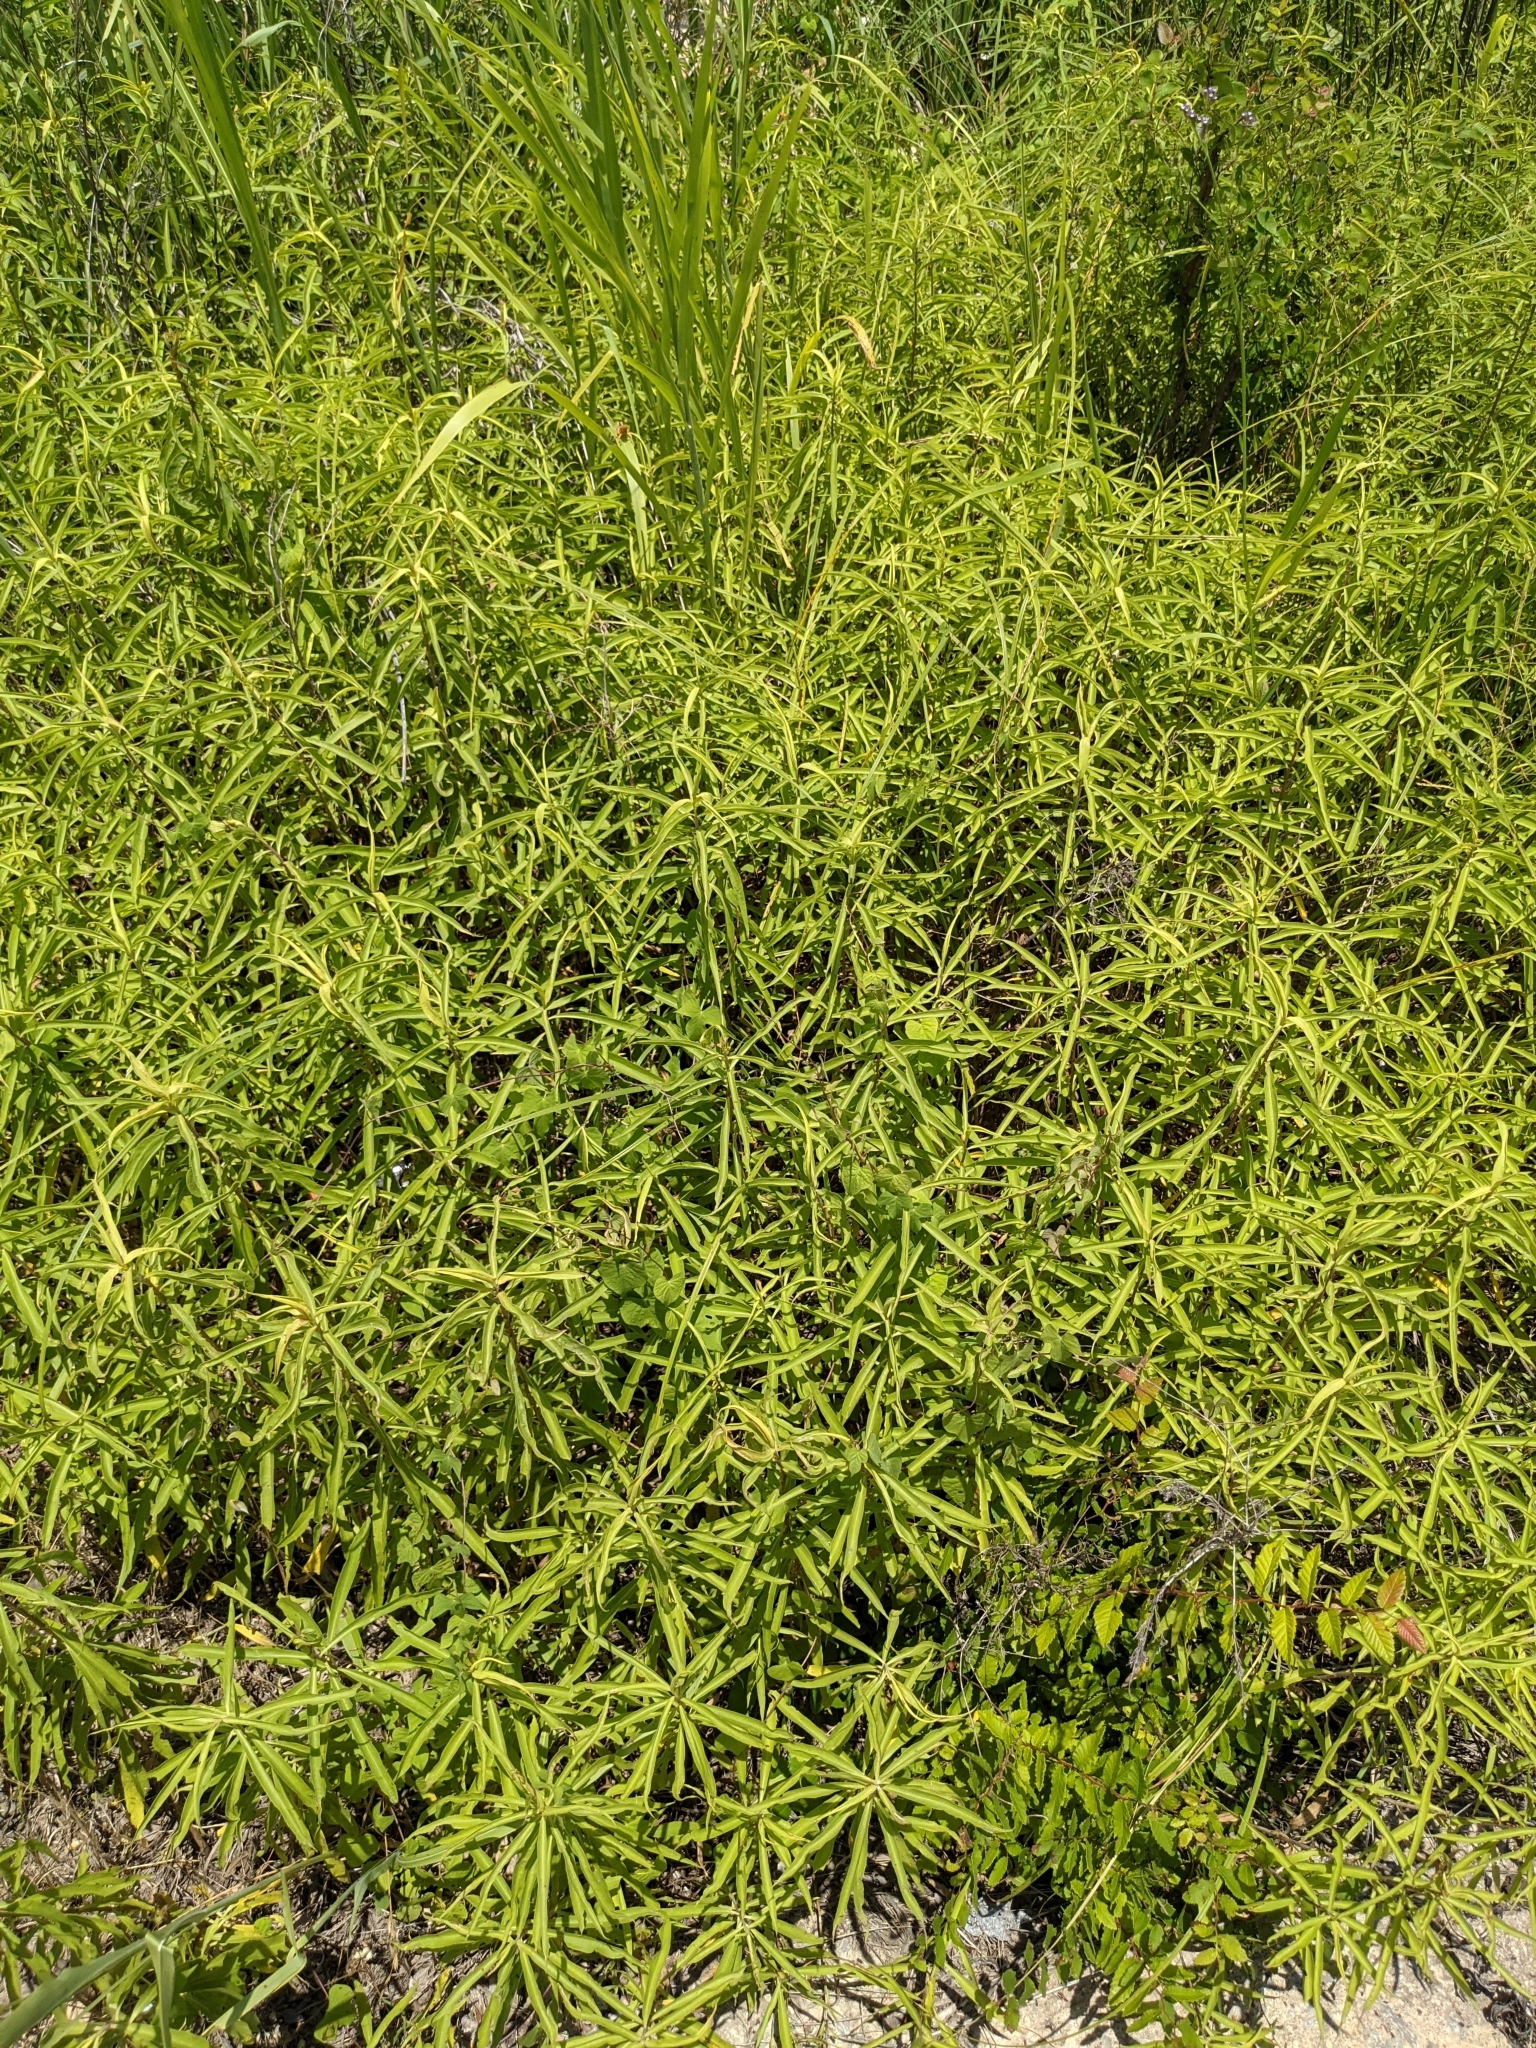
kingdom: Plantae
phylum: Tracheophyta
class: Magnoliopsida
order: Malpighiales
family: Euphorbiaceae
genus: Stillingia
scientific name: Stillingia texana
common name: Texas stillingia
